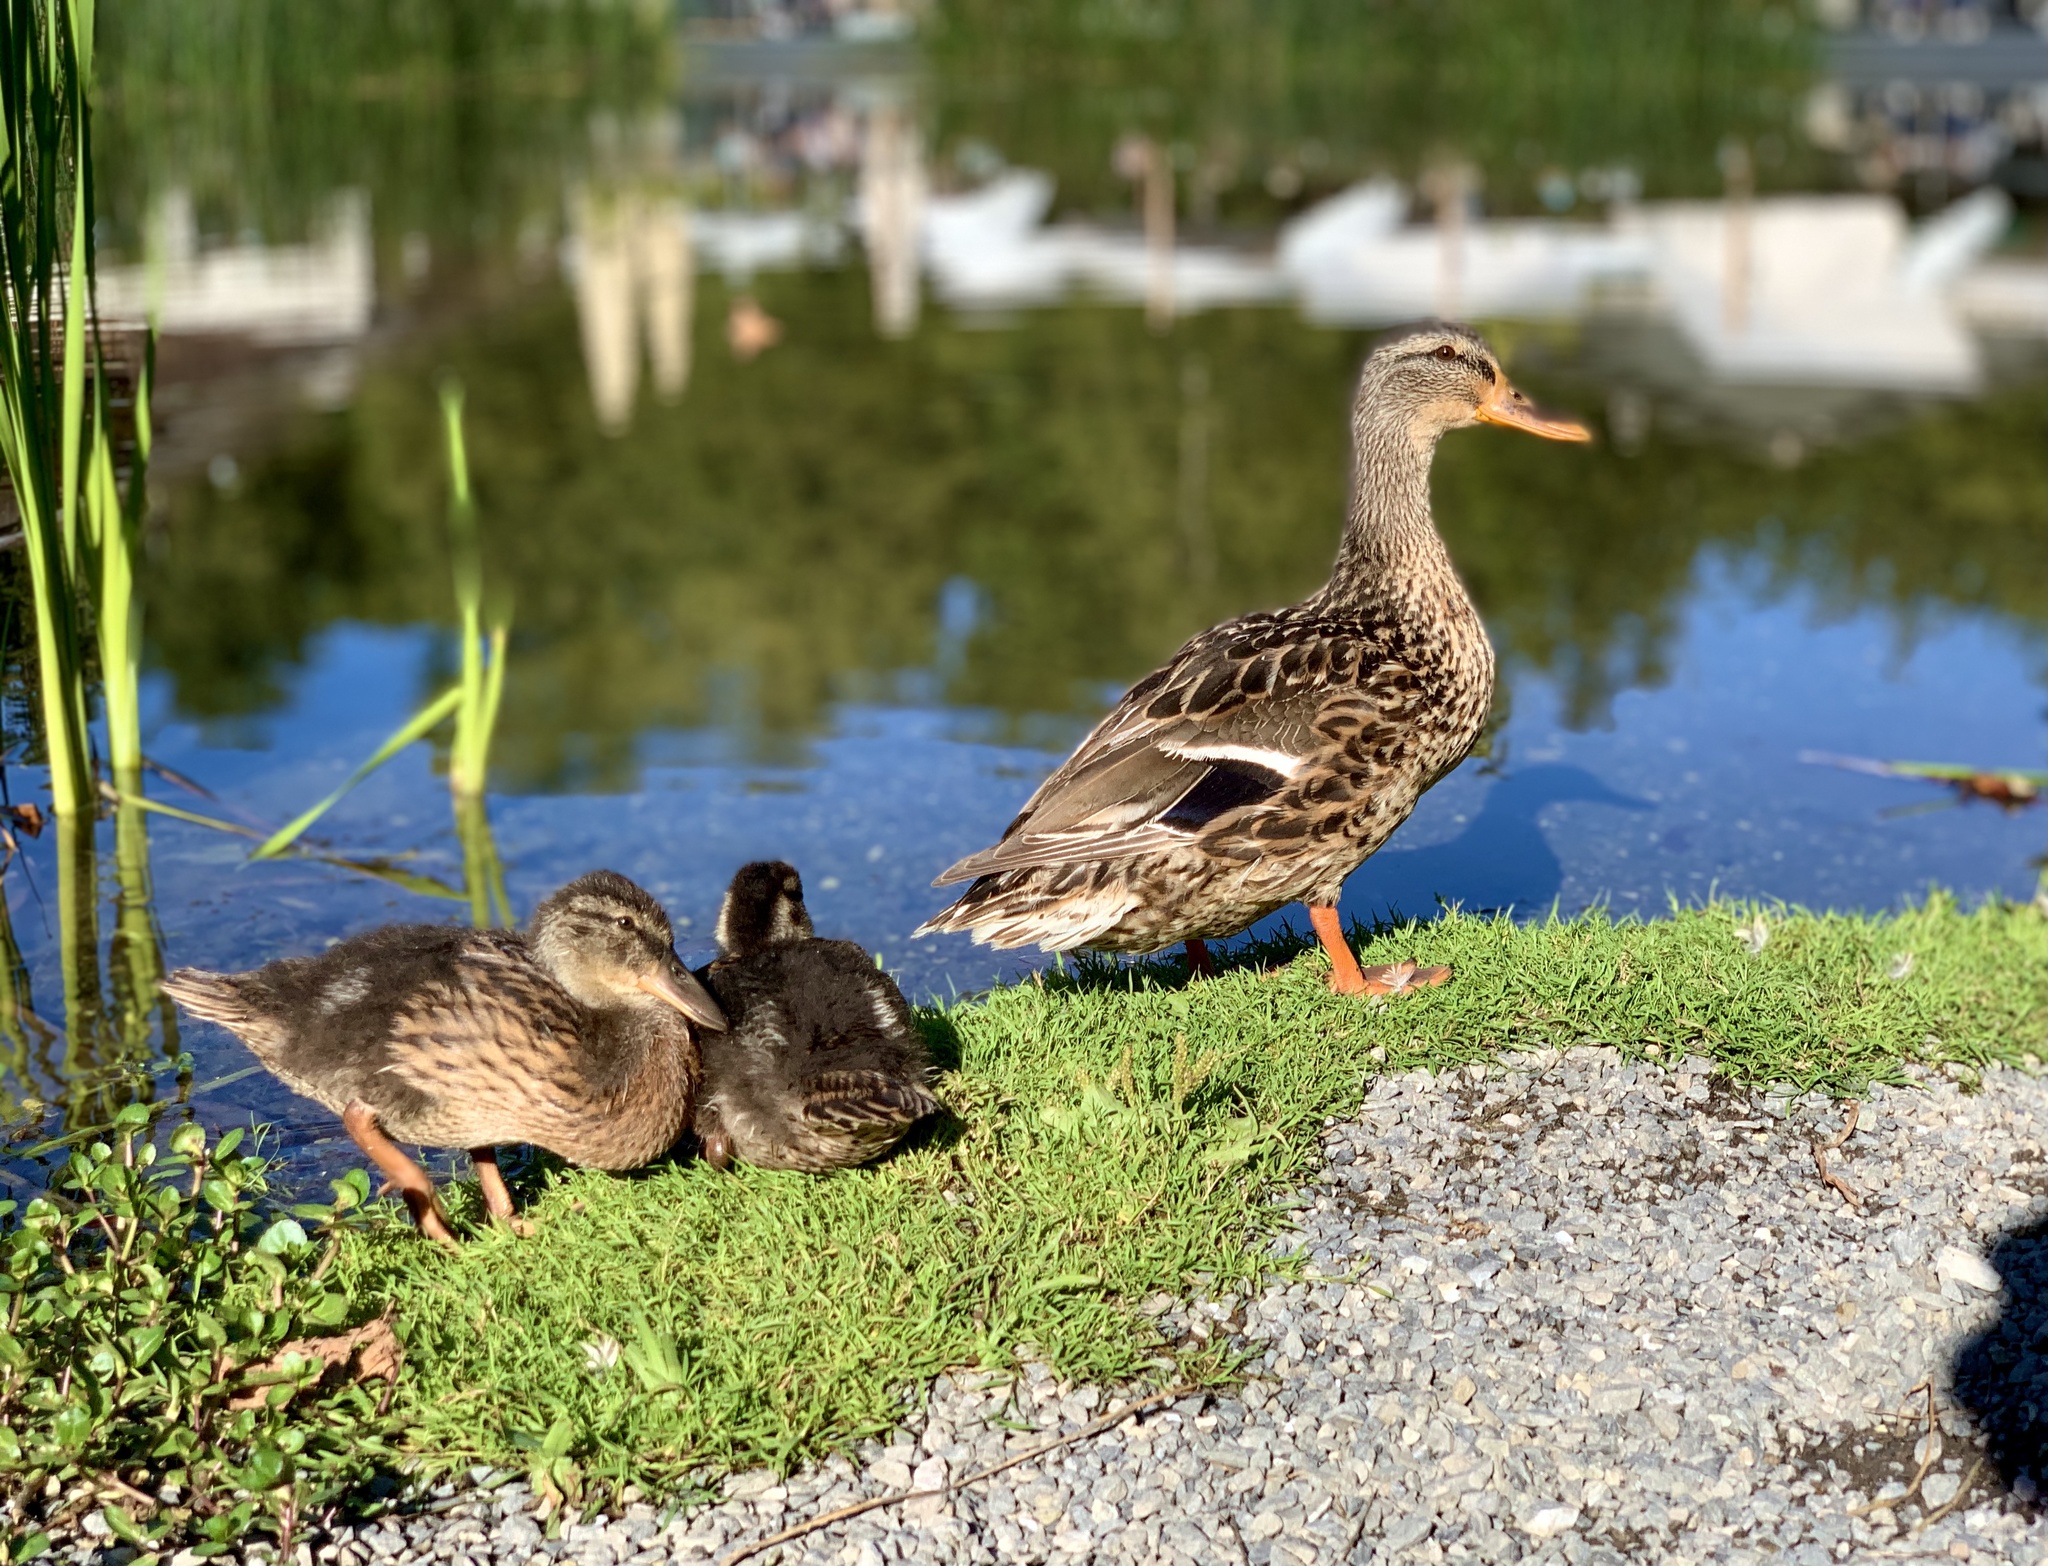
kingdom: Animalia
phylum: Chordata
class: Aves
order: Anseriformes
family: Anatidae
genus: Anas
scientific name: Anas platyrhynchos
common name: Mallard
